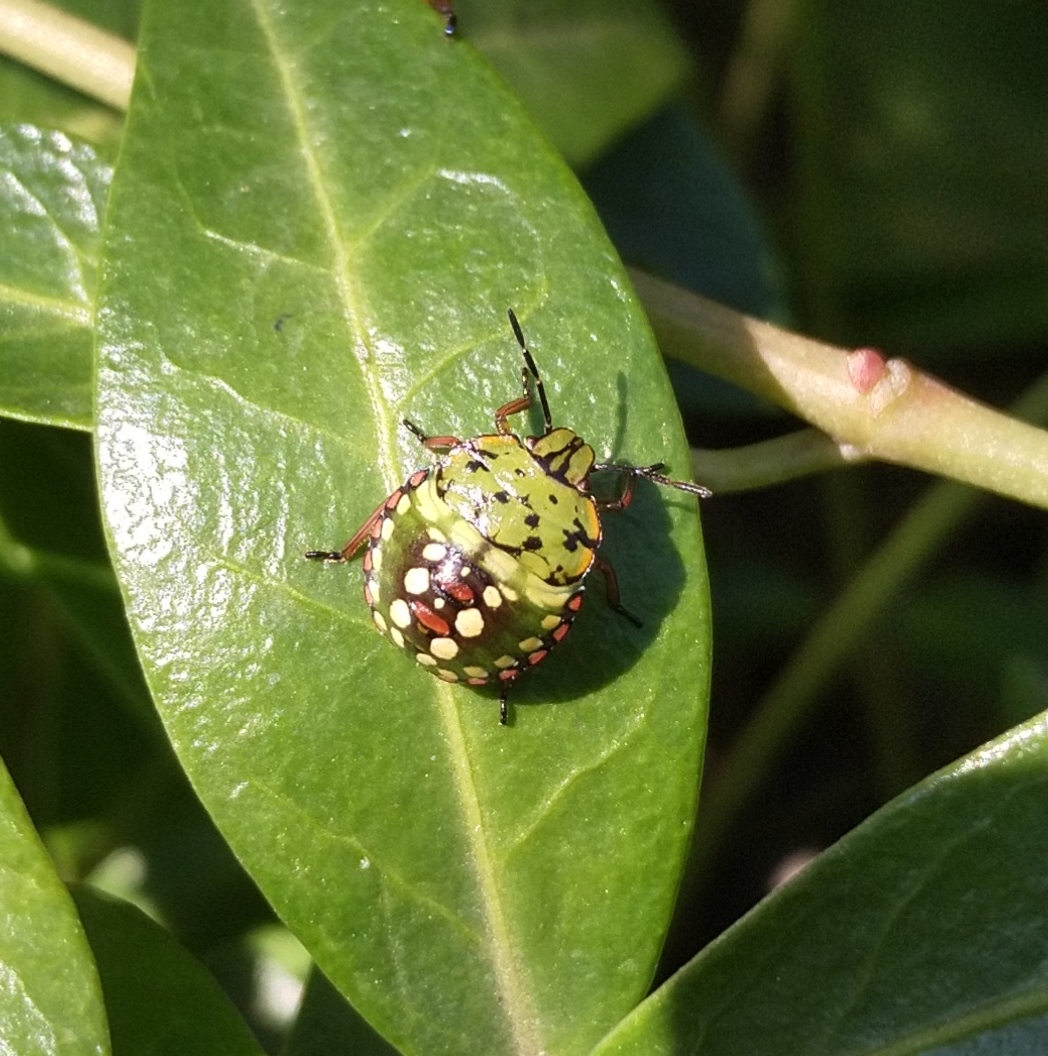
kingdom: Animalia
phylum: Arthropoda
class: Insecta
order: Hemiptera
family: Pentatomidae
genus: Nezara
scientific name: Nezara viridula
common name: Southern green stink bug
